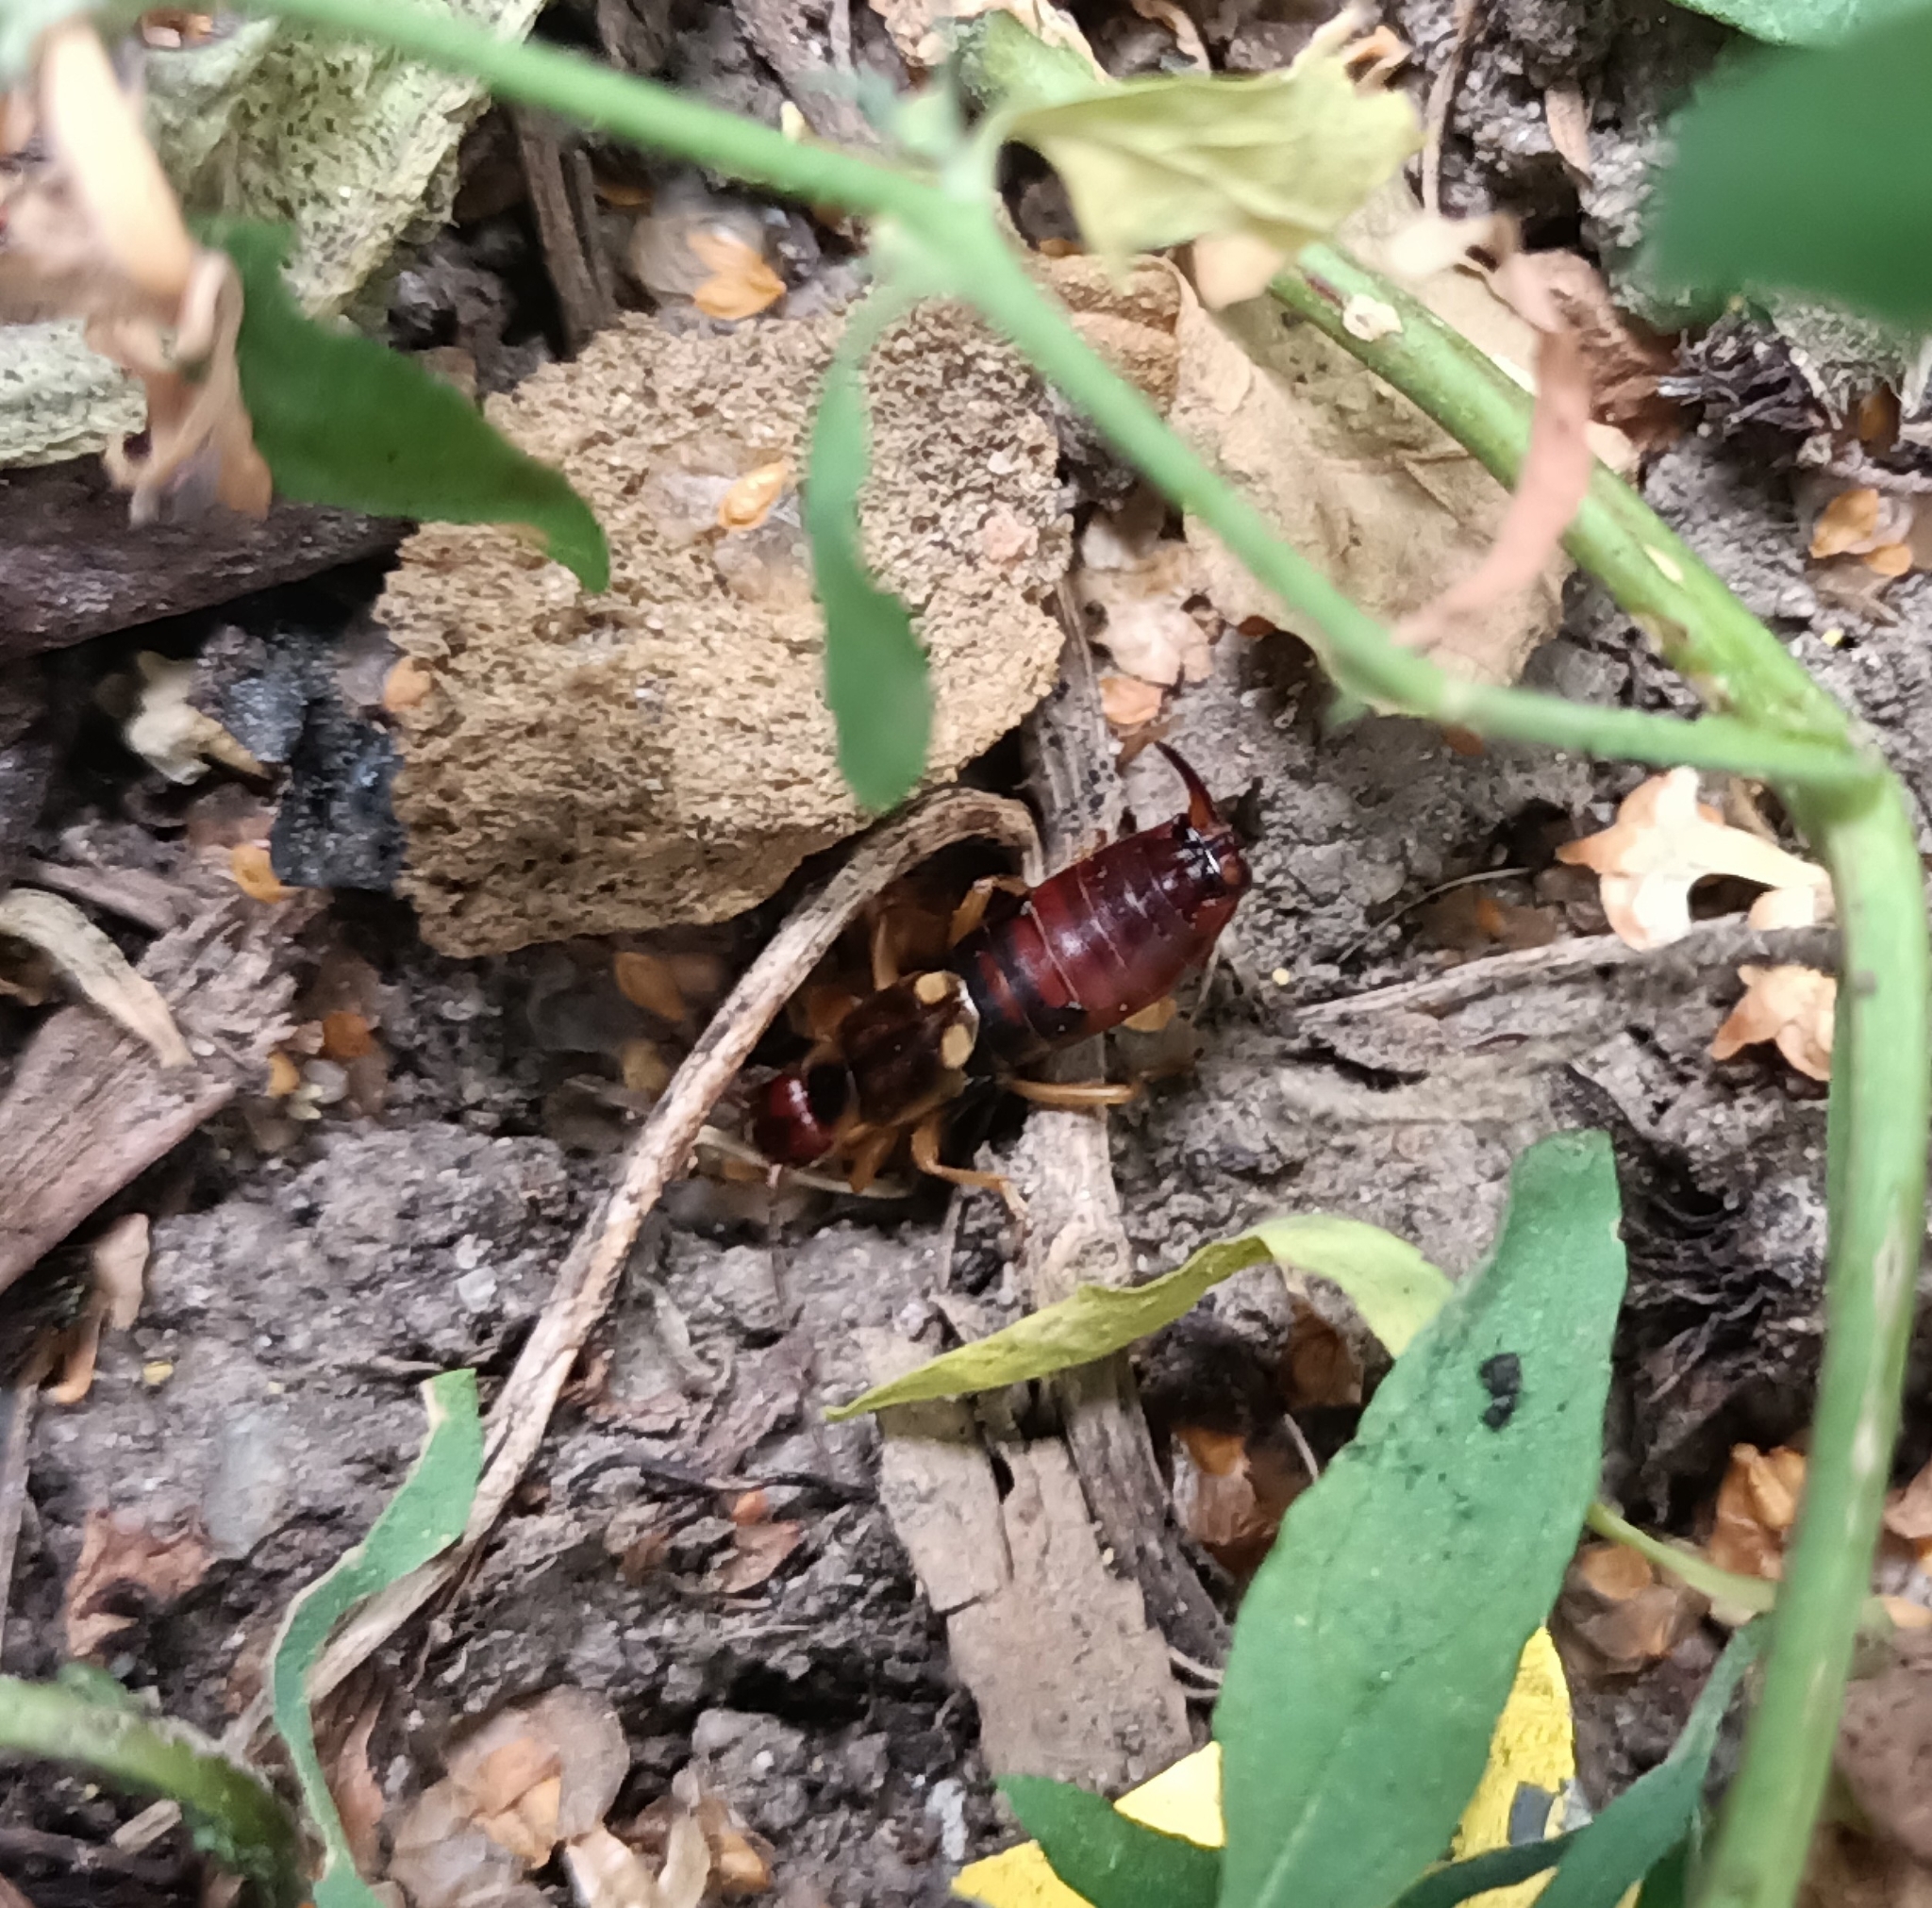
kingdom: Animalia
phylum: Arthropoda
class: Insecta
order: Dermaptera
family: Forficulidae
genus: Forficula
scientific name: Forficula
